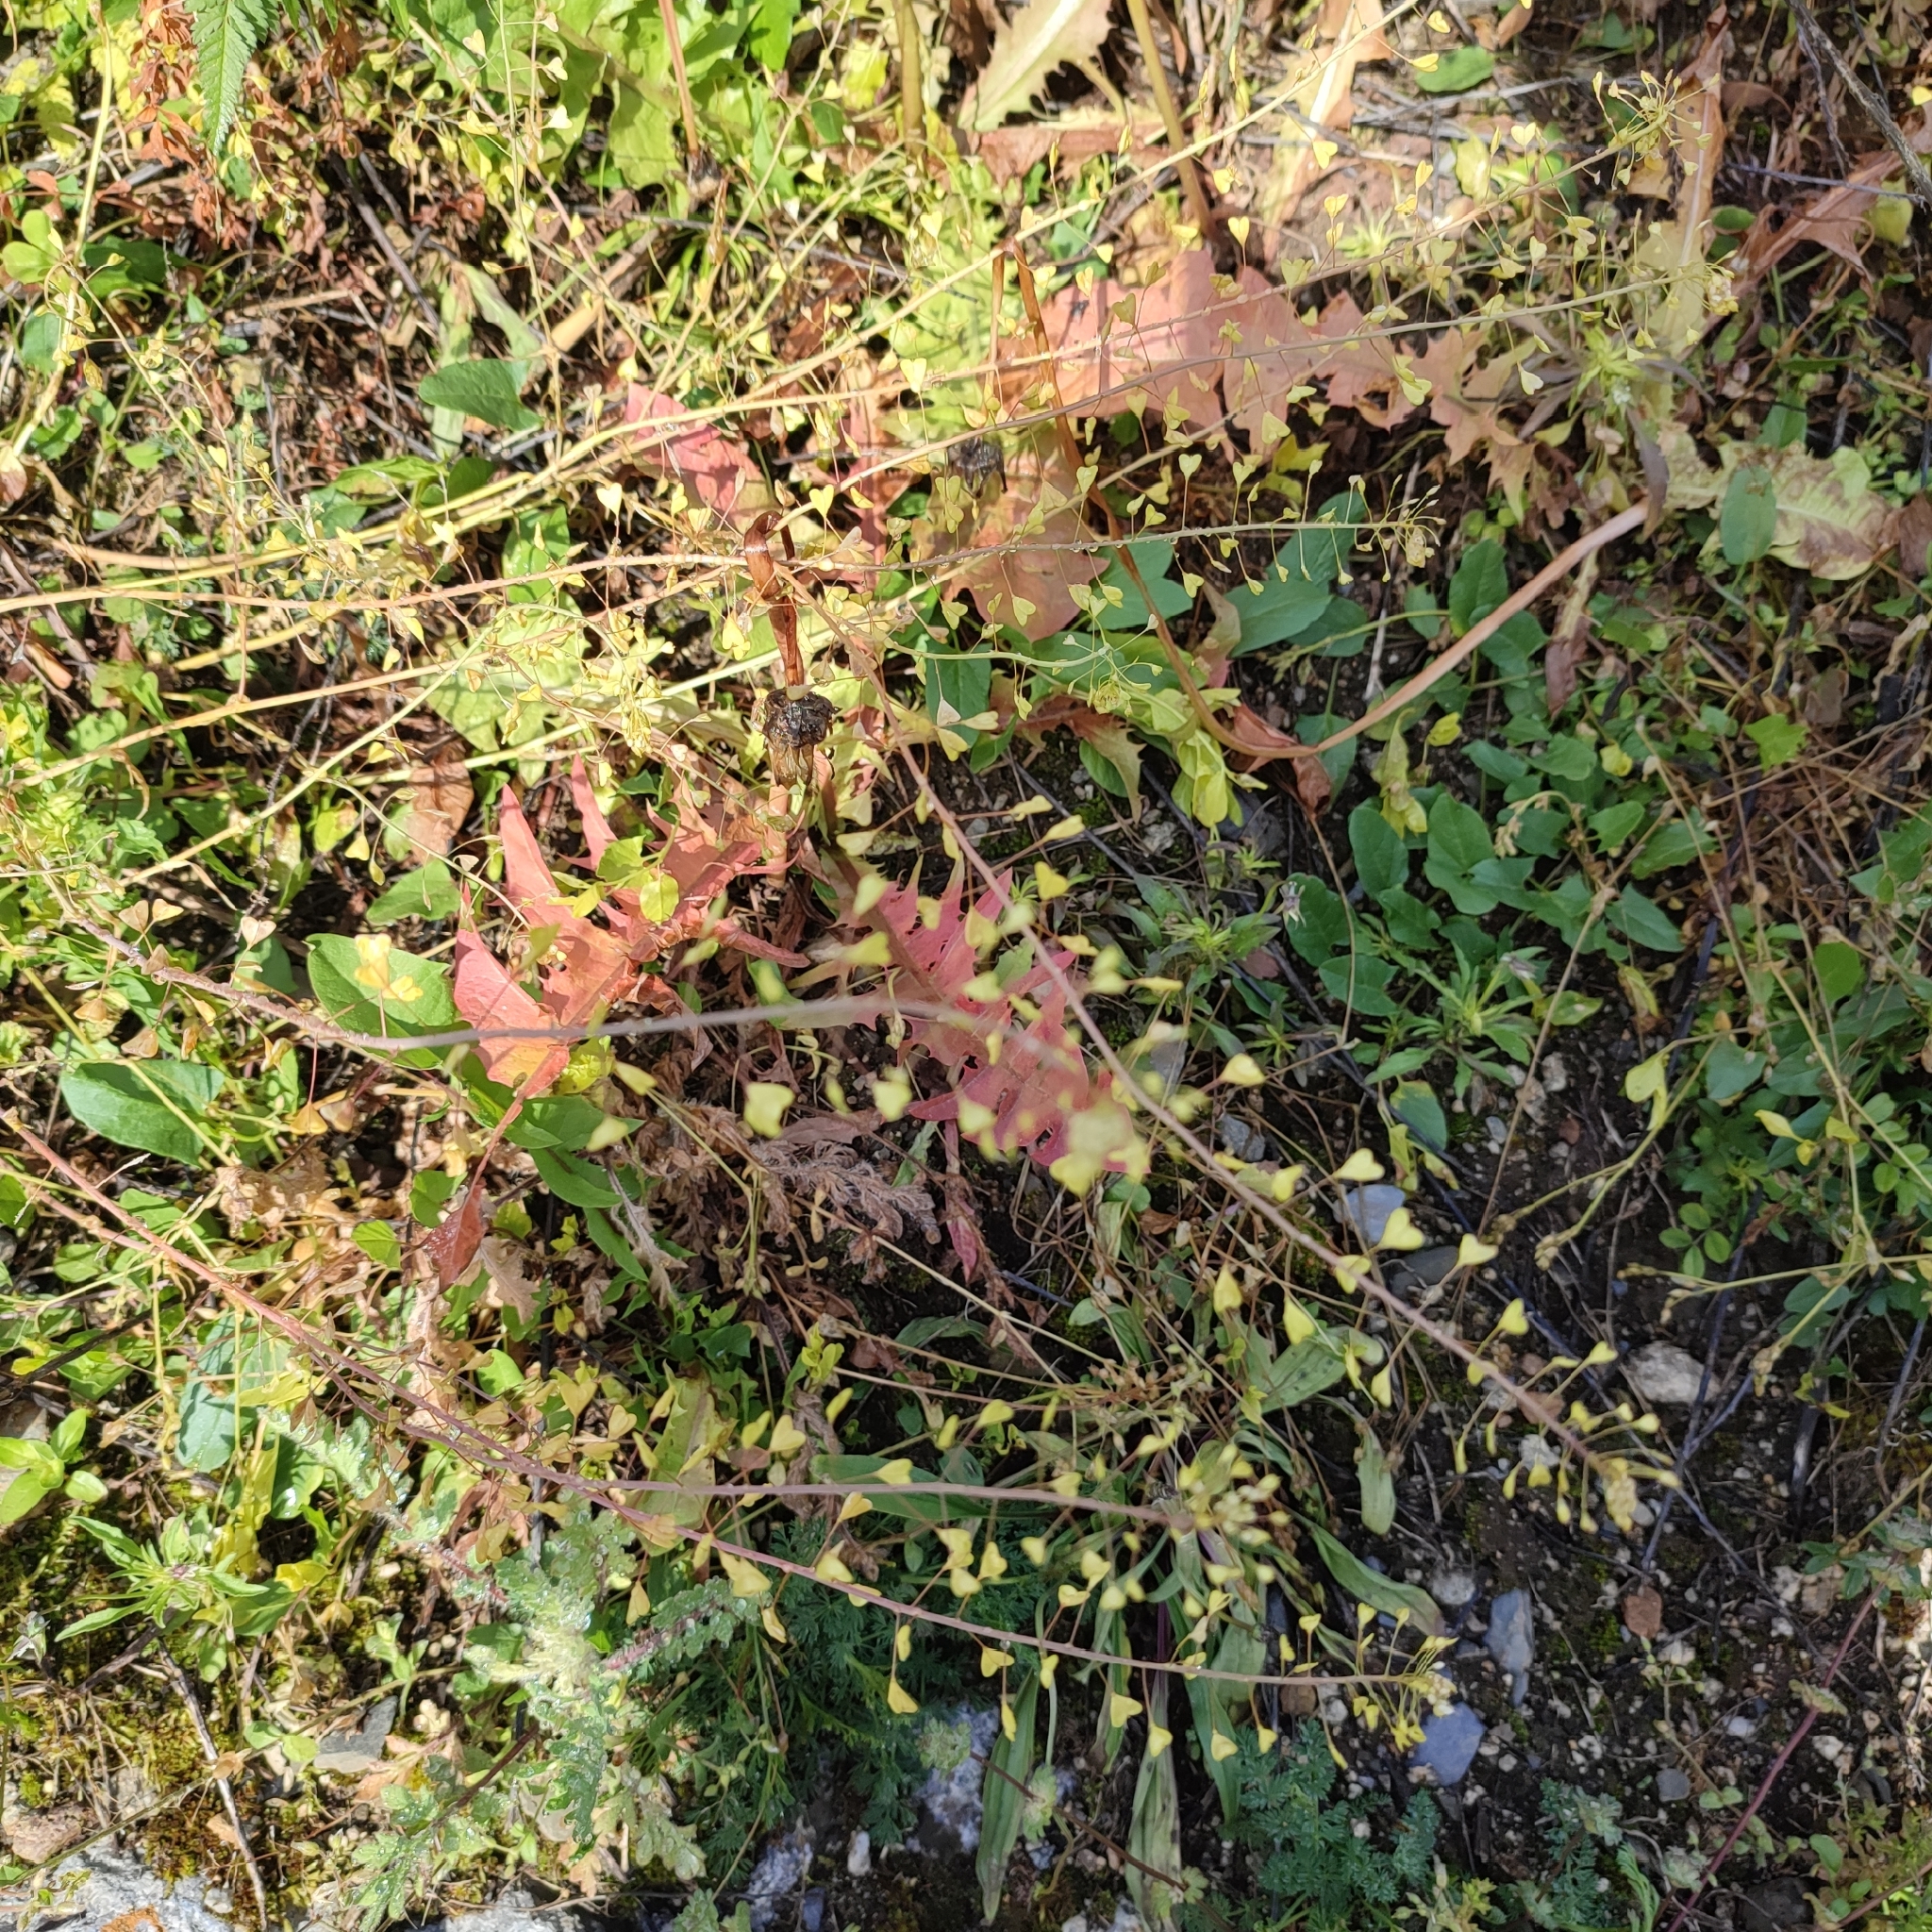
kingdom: Plantae
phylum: Tracheophyta
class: Magnoliopsida
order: Brassicales
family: Brassicaceae
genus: Capsella
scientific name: Capsella bursa-pastoris
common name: Shepherd's purse
